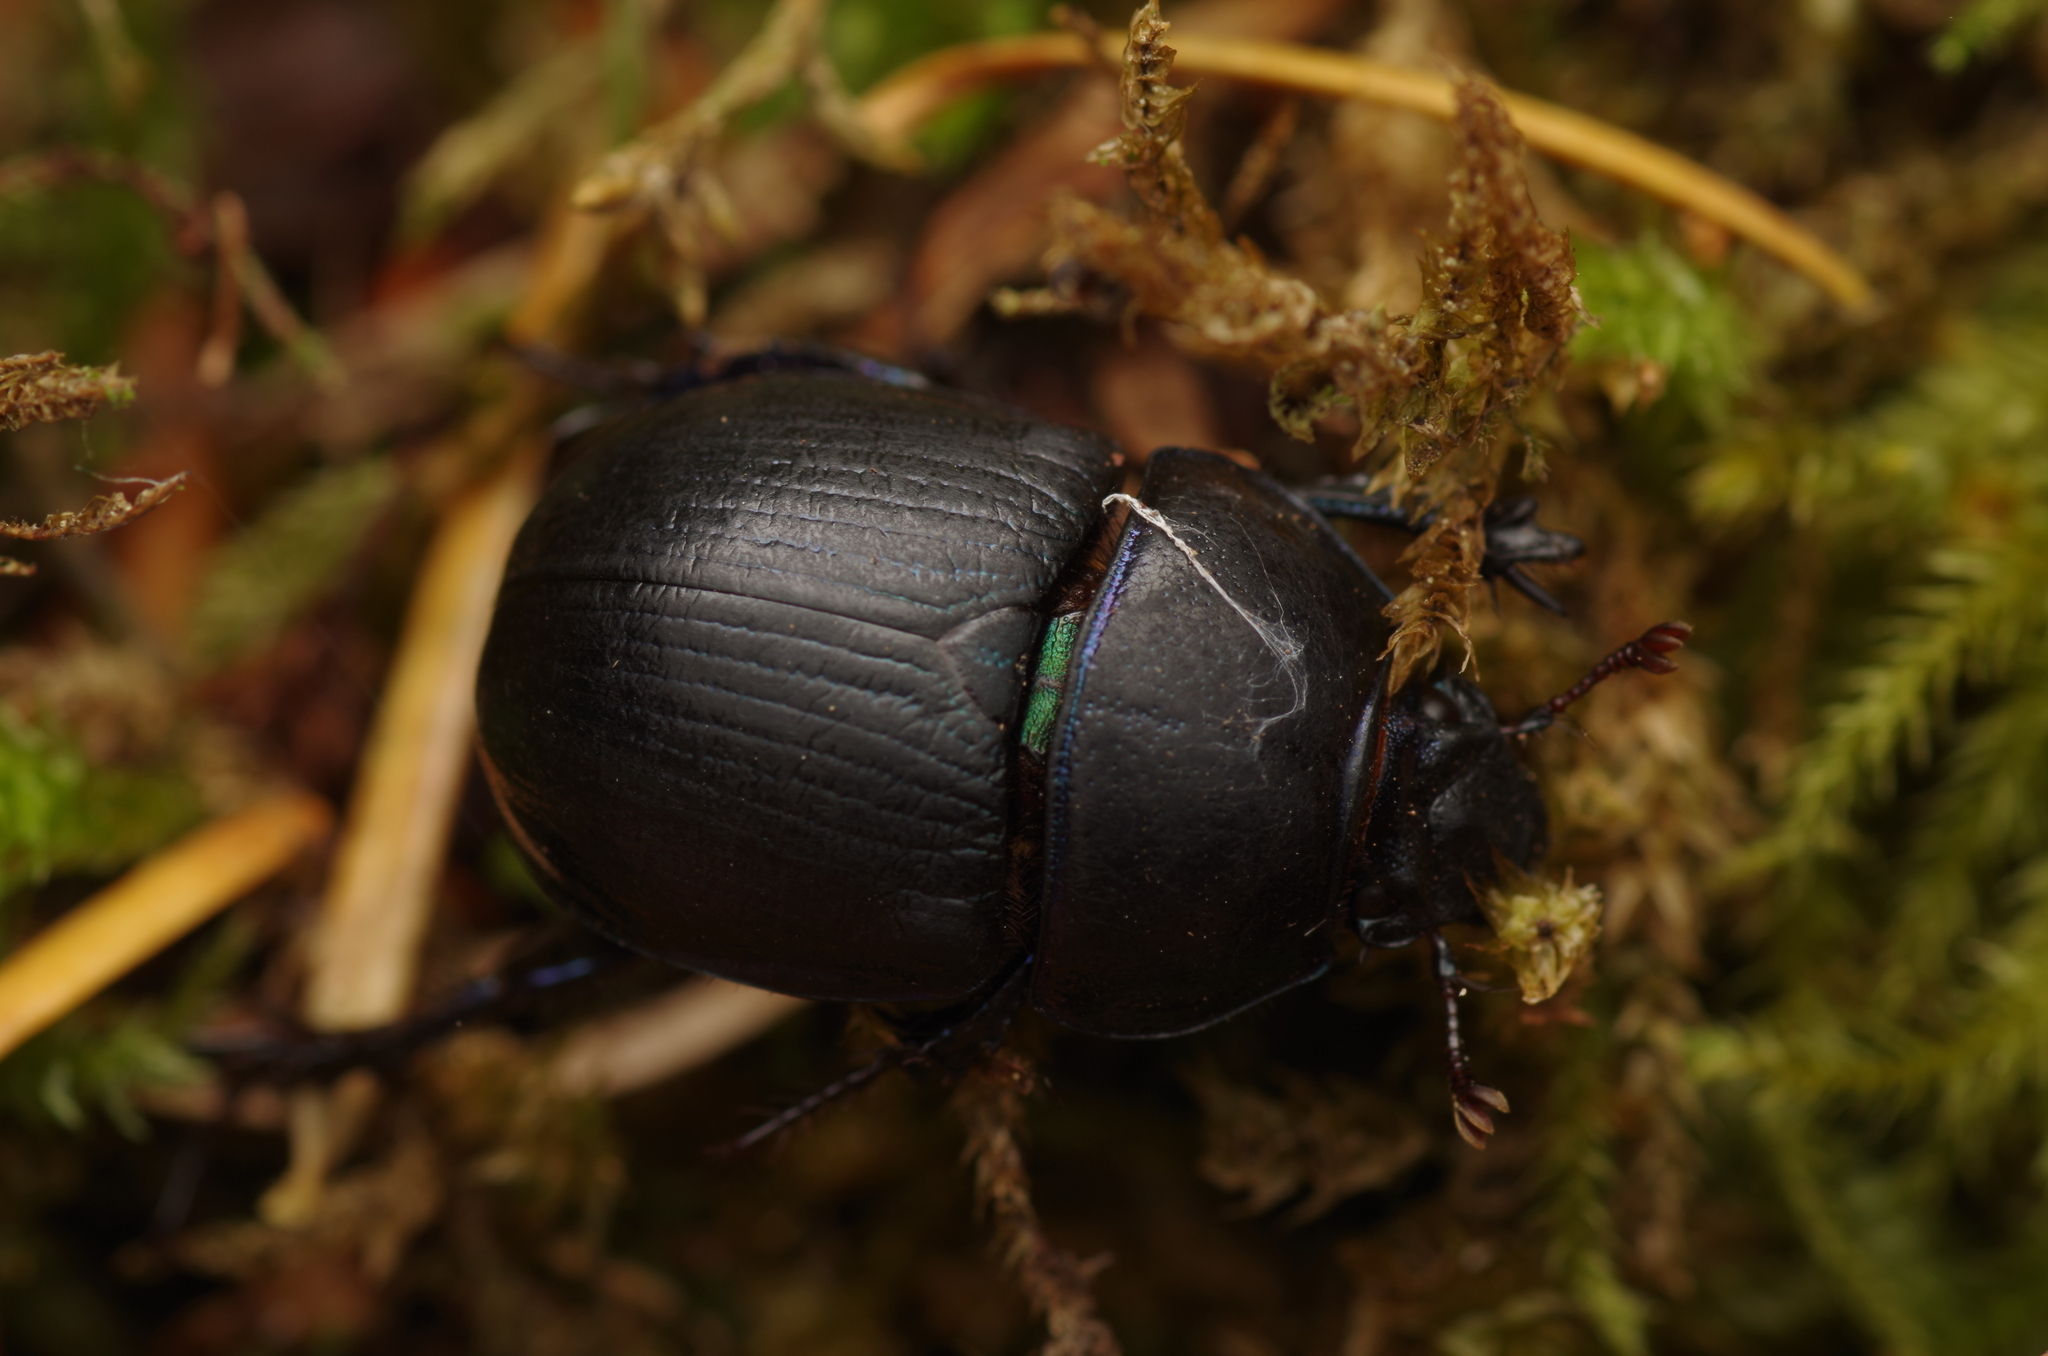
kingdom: Animalia
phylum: Arthropoda
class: Insecta
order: Coleoptera
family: Geotrupidae
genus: Anoplotrupes
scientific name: Anoplotrupes stercorosus
